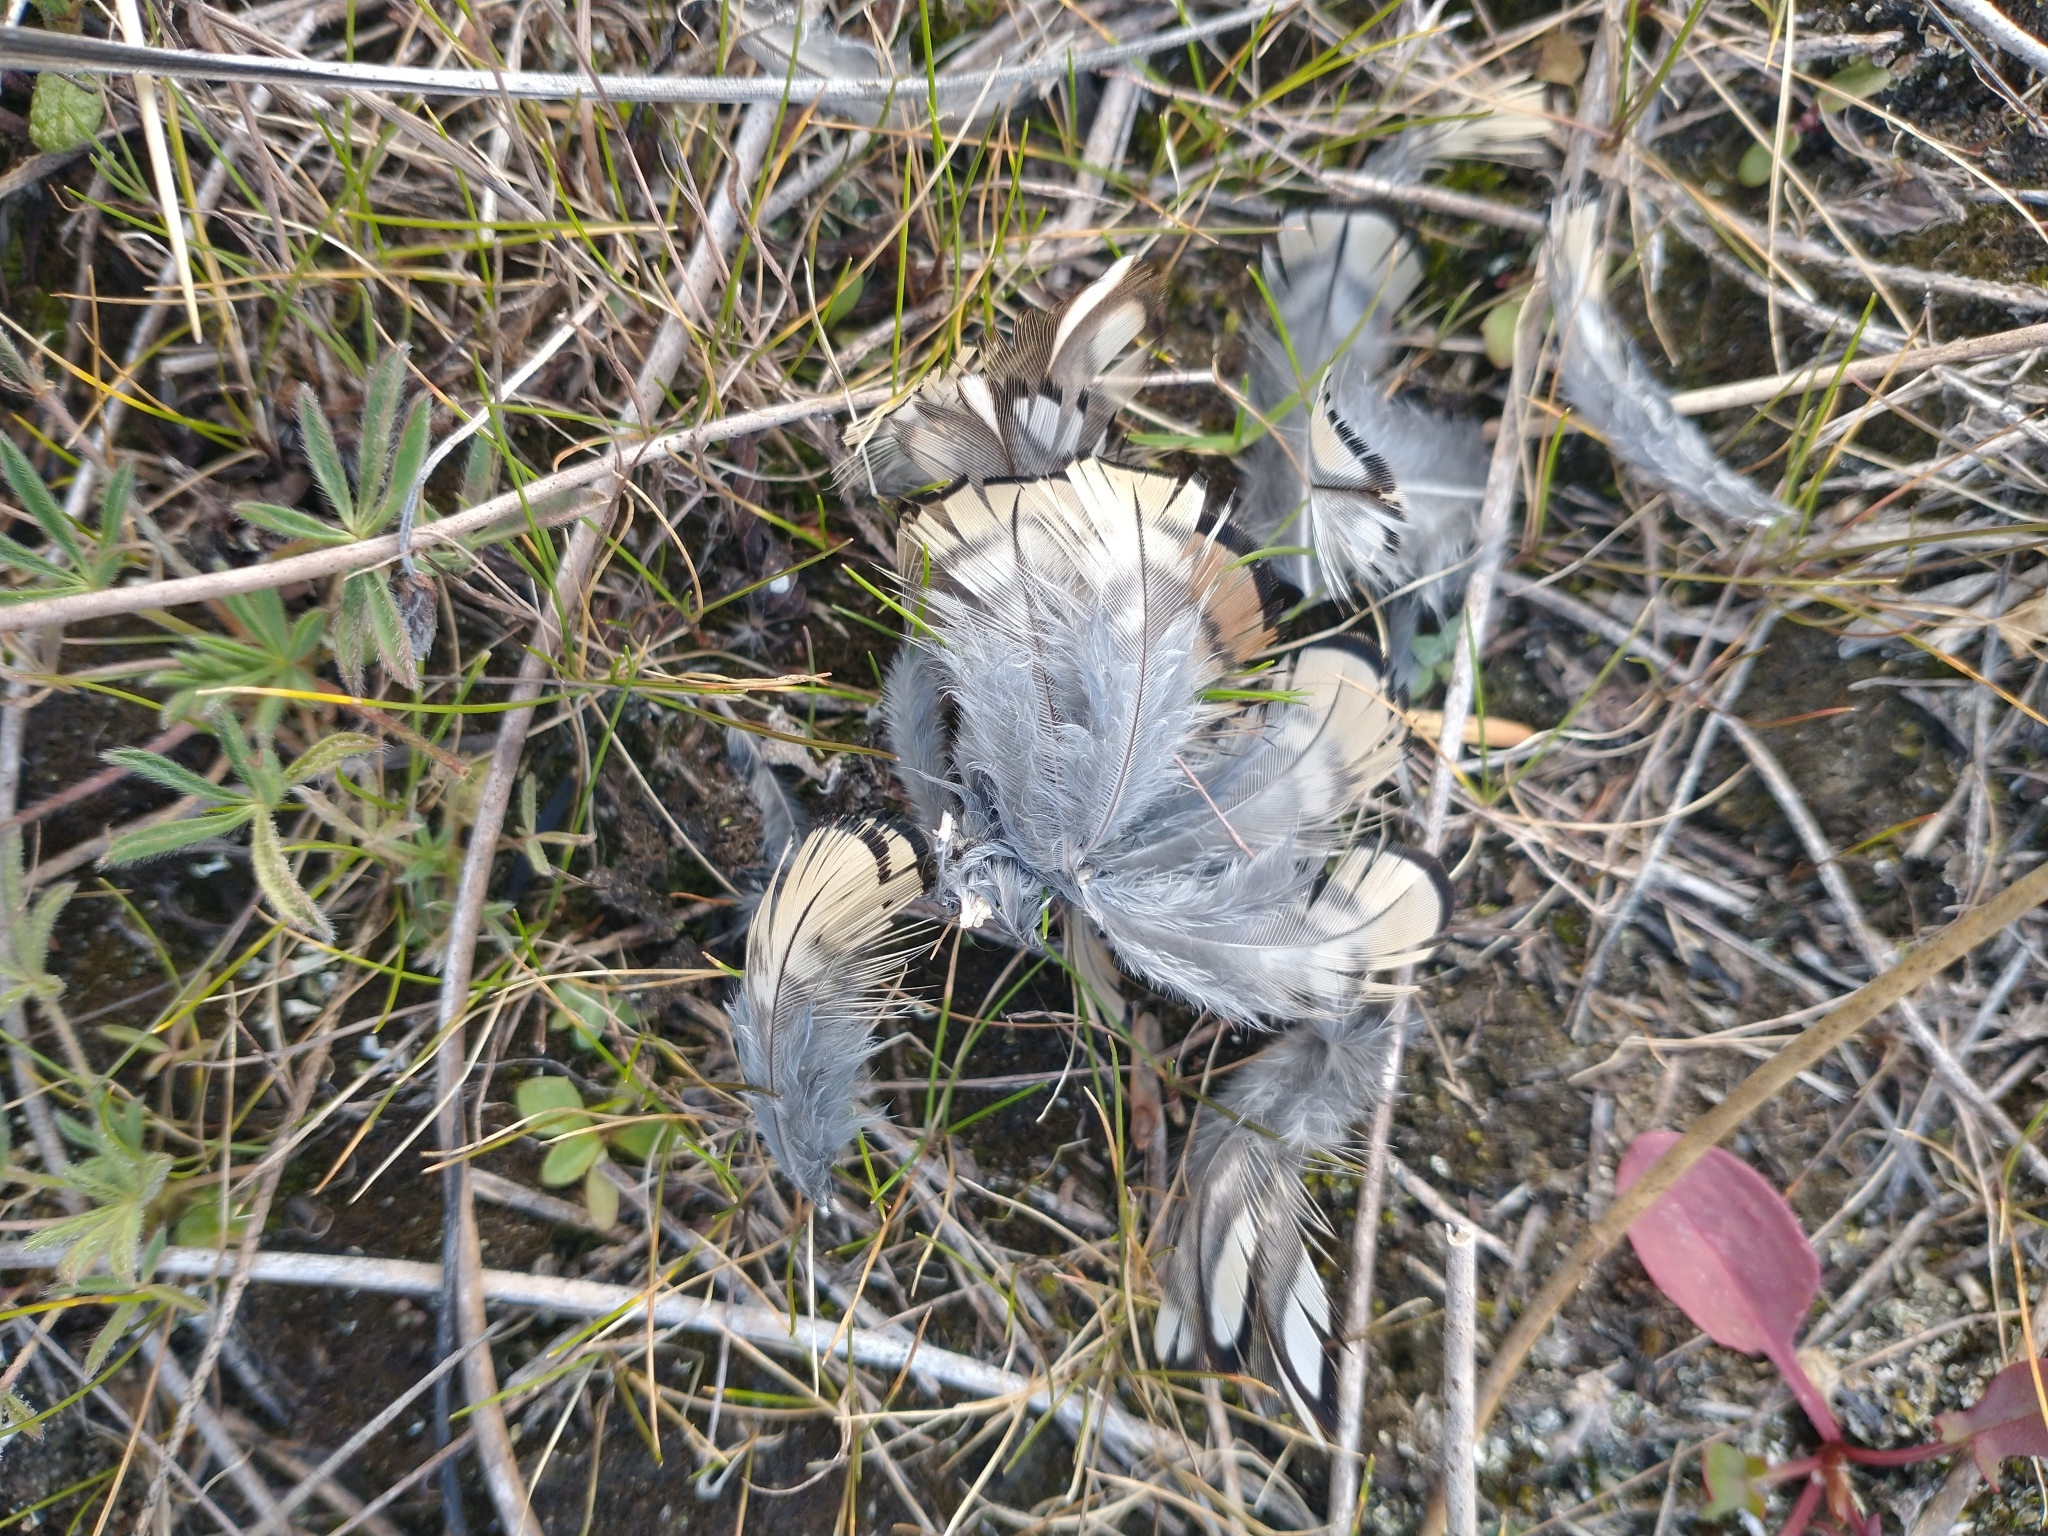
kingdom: Animalia
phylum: Chordata
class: Aves
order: Galliformes
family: Odontophoridae
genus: Callipepla
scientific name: Callipepla californica
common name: California quail
